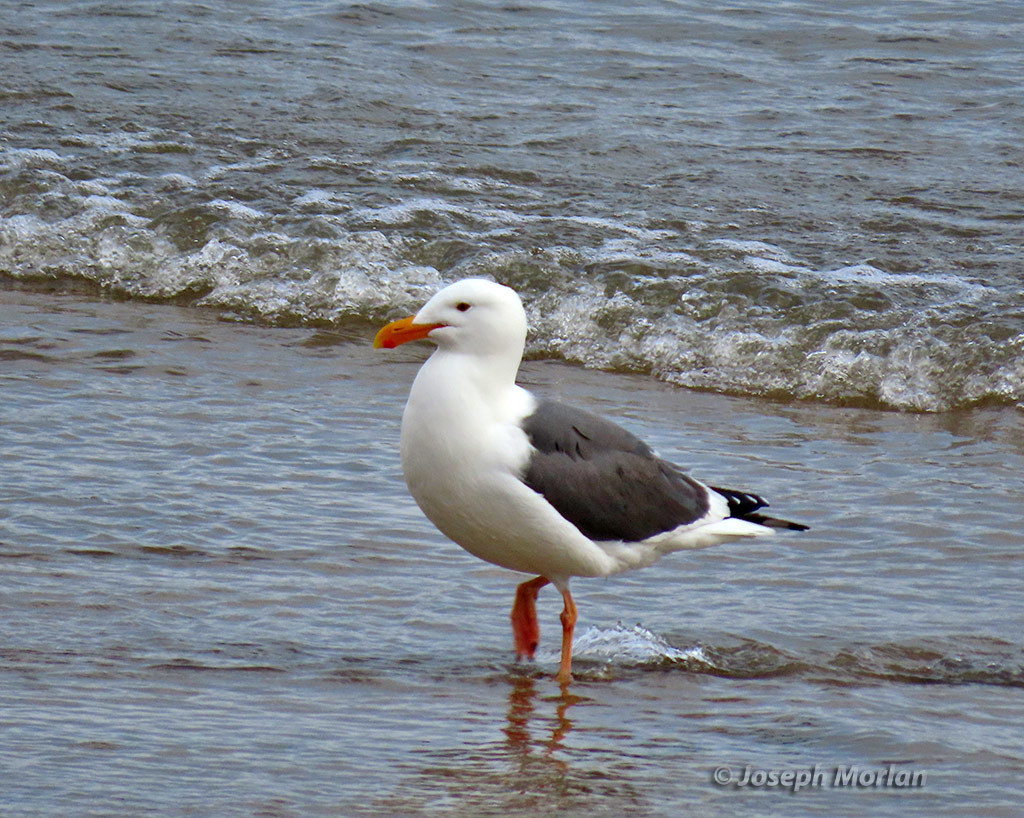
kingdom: Animalia
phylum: Chordata
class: Aves
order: Charadriiformes
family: Laridae
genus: Larus
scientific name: Larus occidentalis
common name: Western gull
